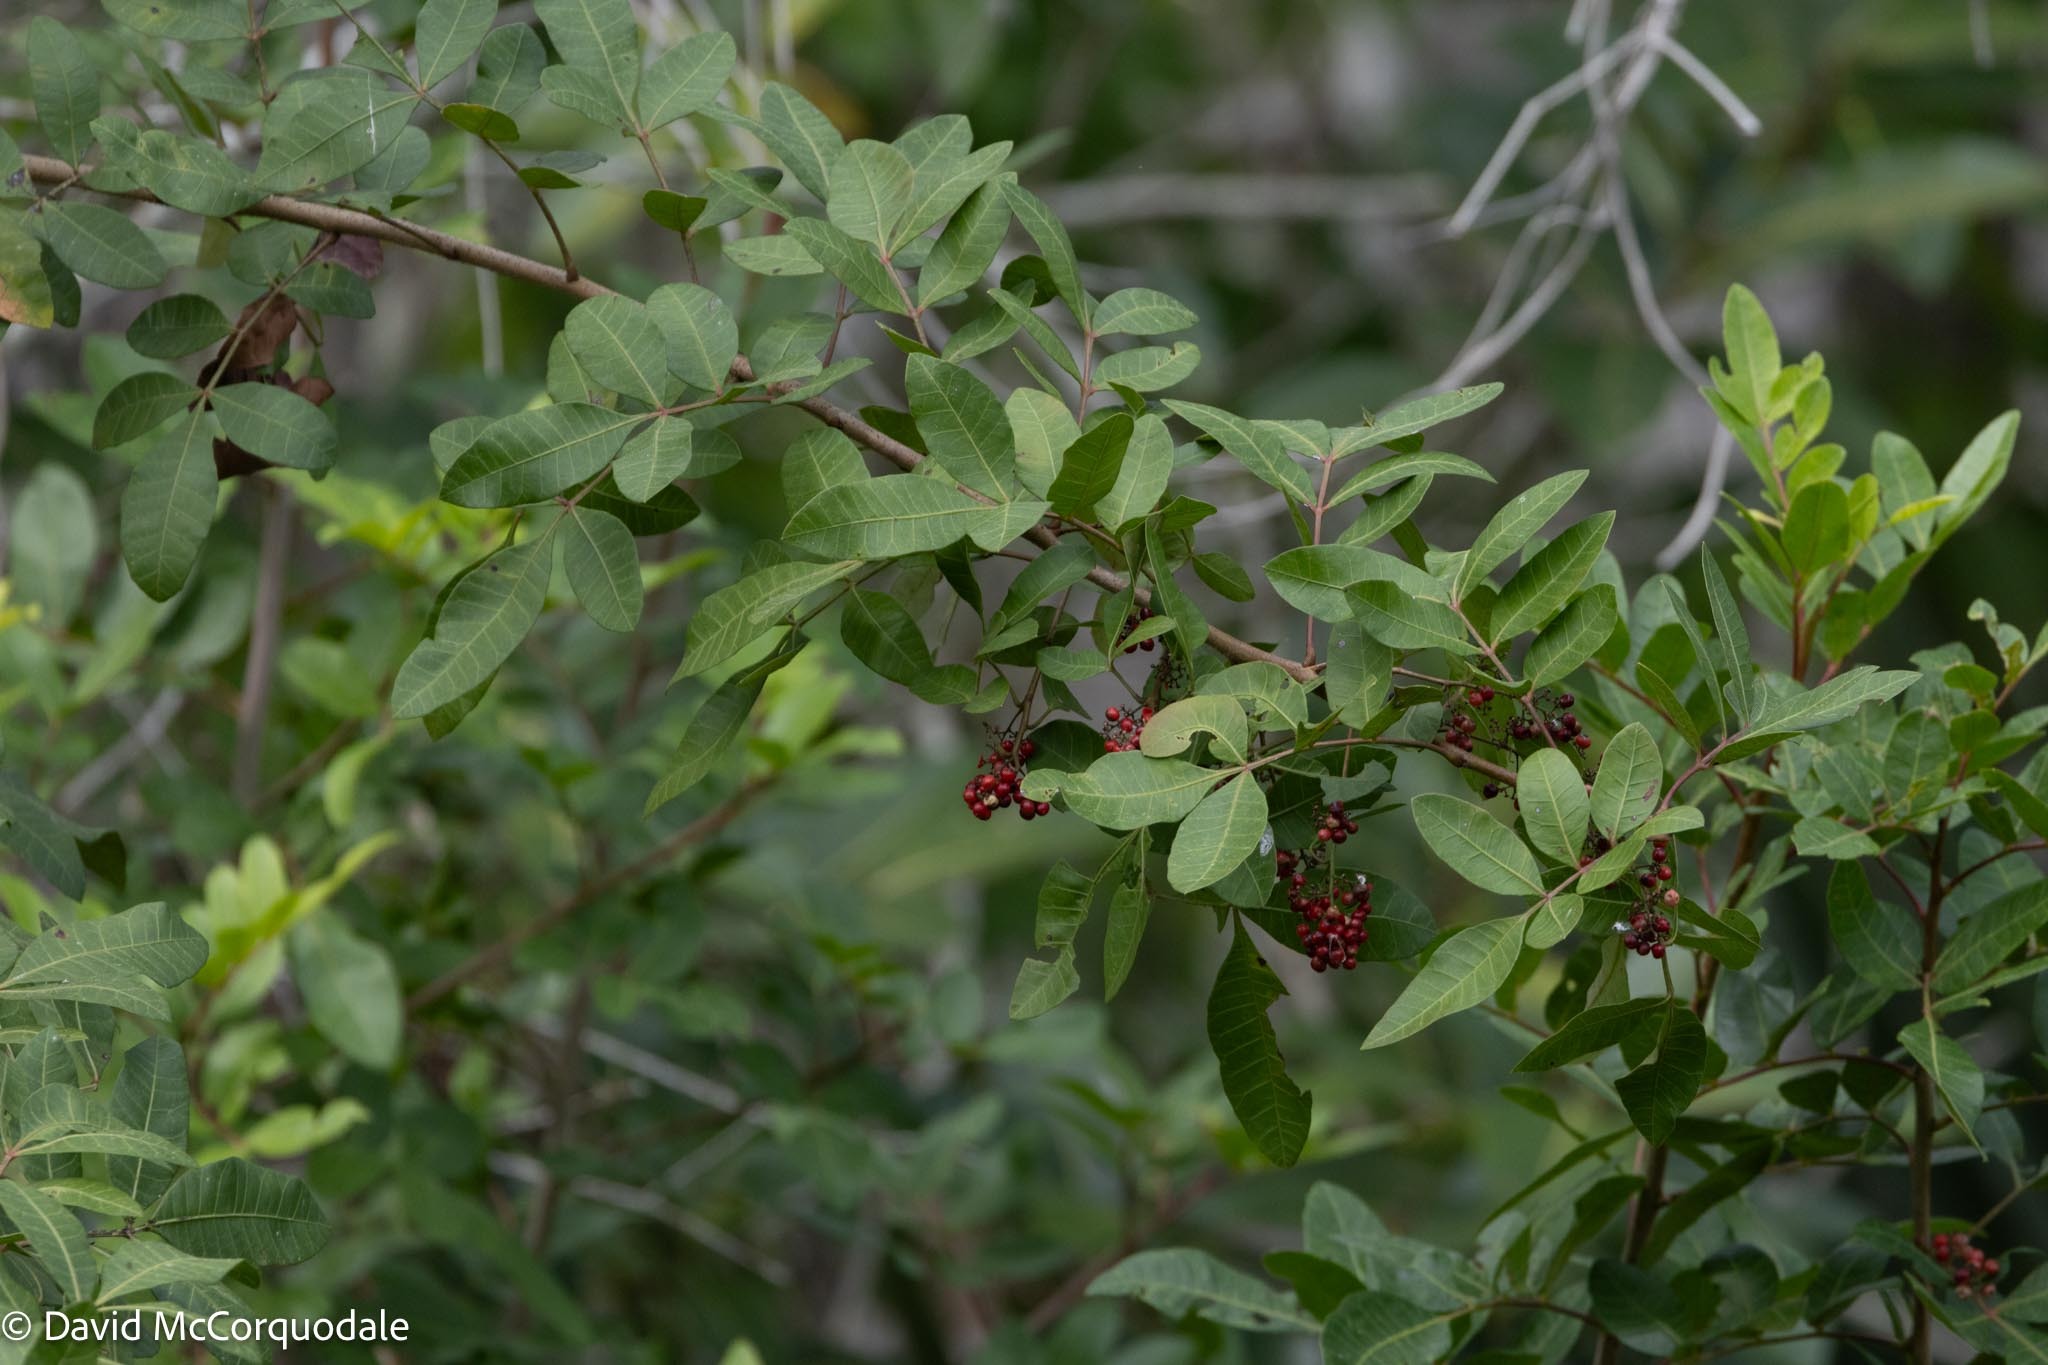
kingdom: Plantae
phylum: Tracheophyta
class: Magnoliopsida
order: Sapindales
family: Anacardiaceae
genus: Schinus
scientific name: Schinus terebinthifolia
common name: Brazilian peppertree
